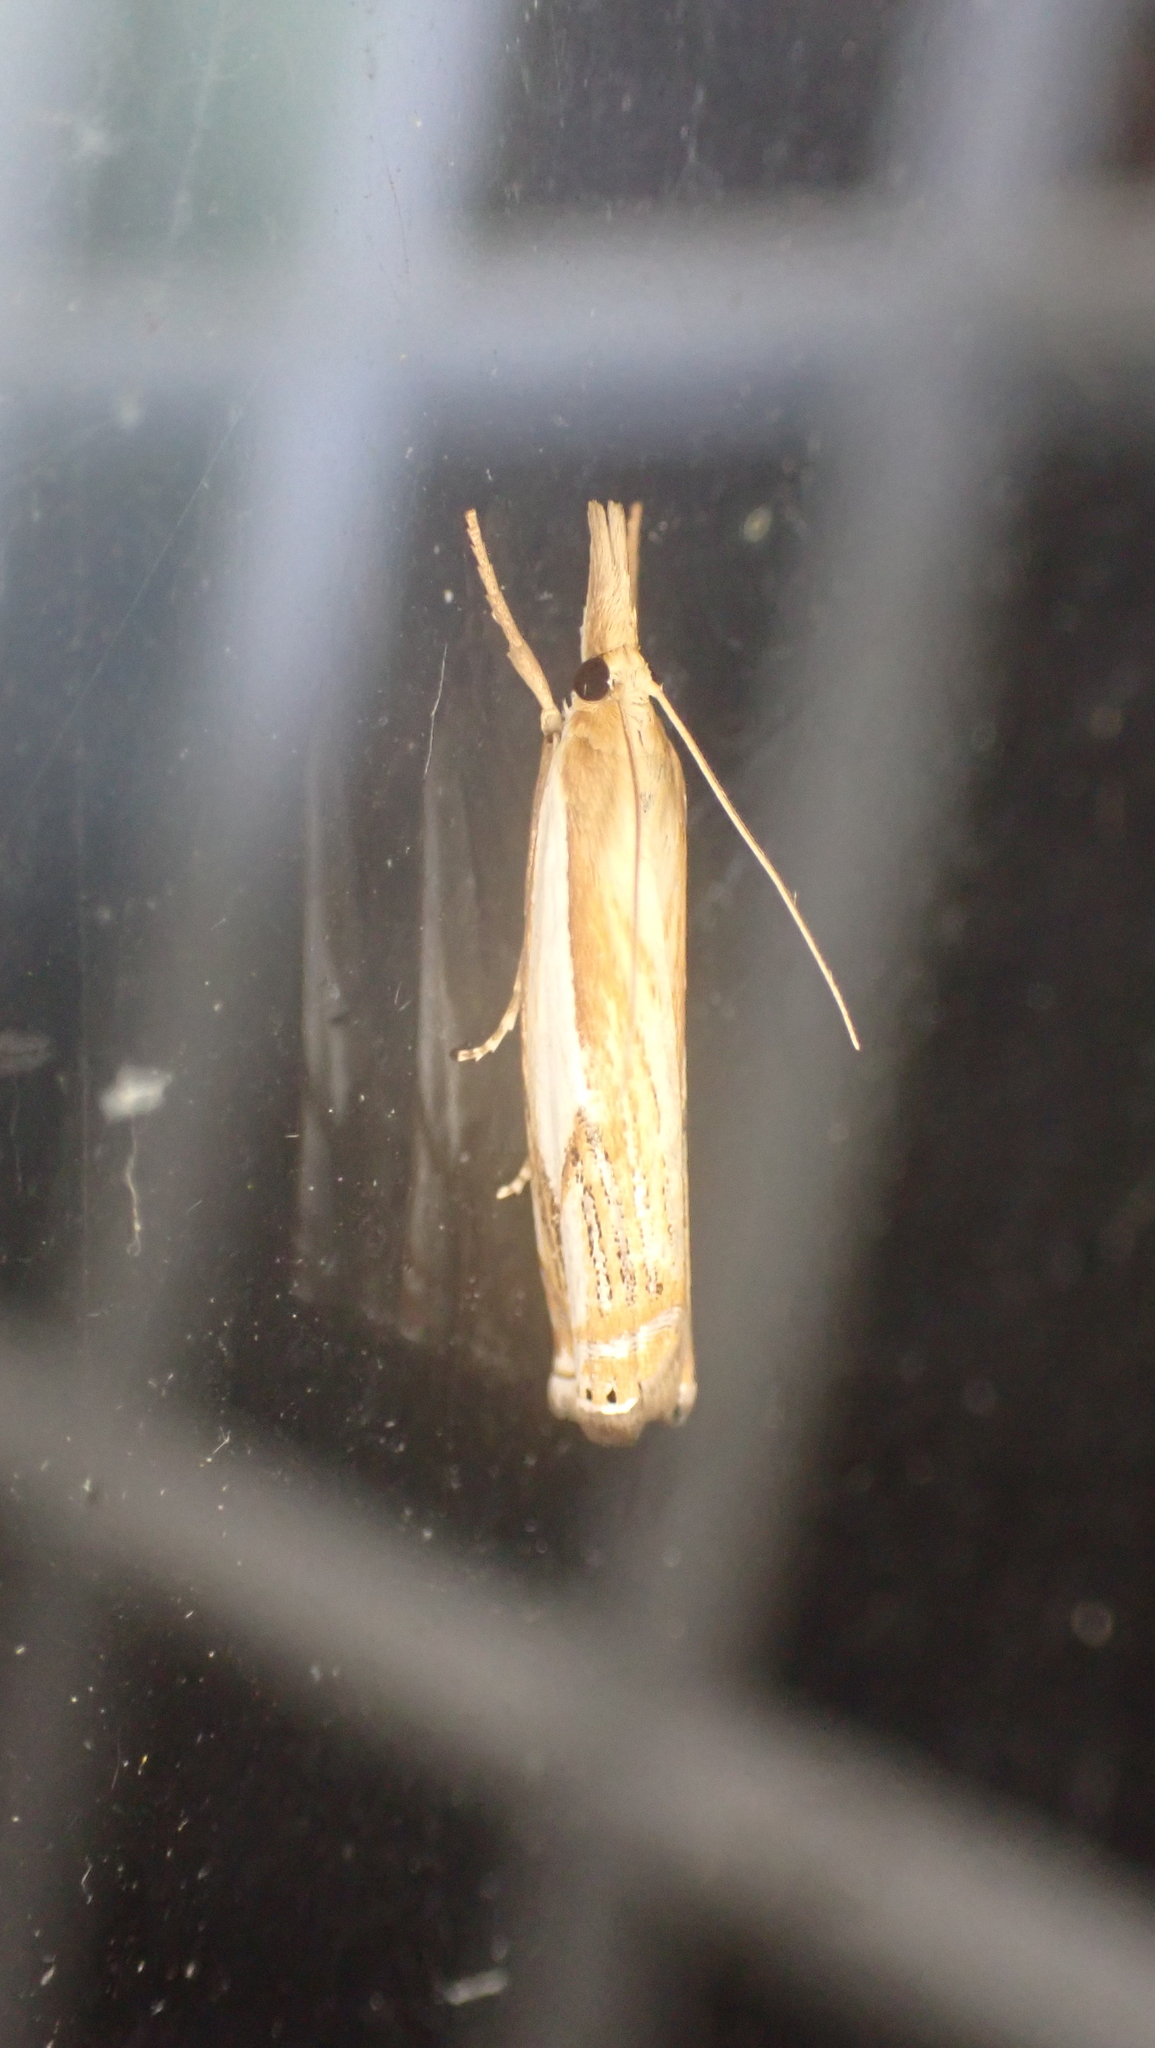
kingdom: Animalia
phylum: Arthropoda
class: Insecta
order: Lepidoptera
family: Crambidae
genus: Crambus
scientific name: Crambus agitatellus
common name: Double-banded grass-veneer
